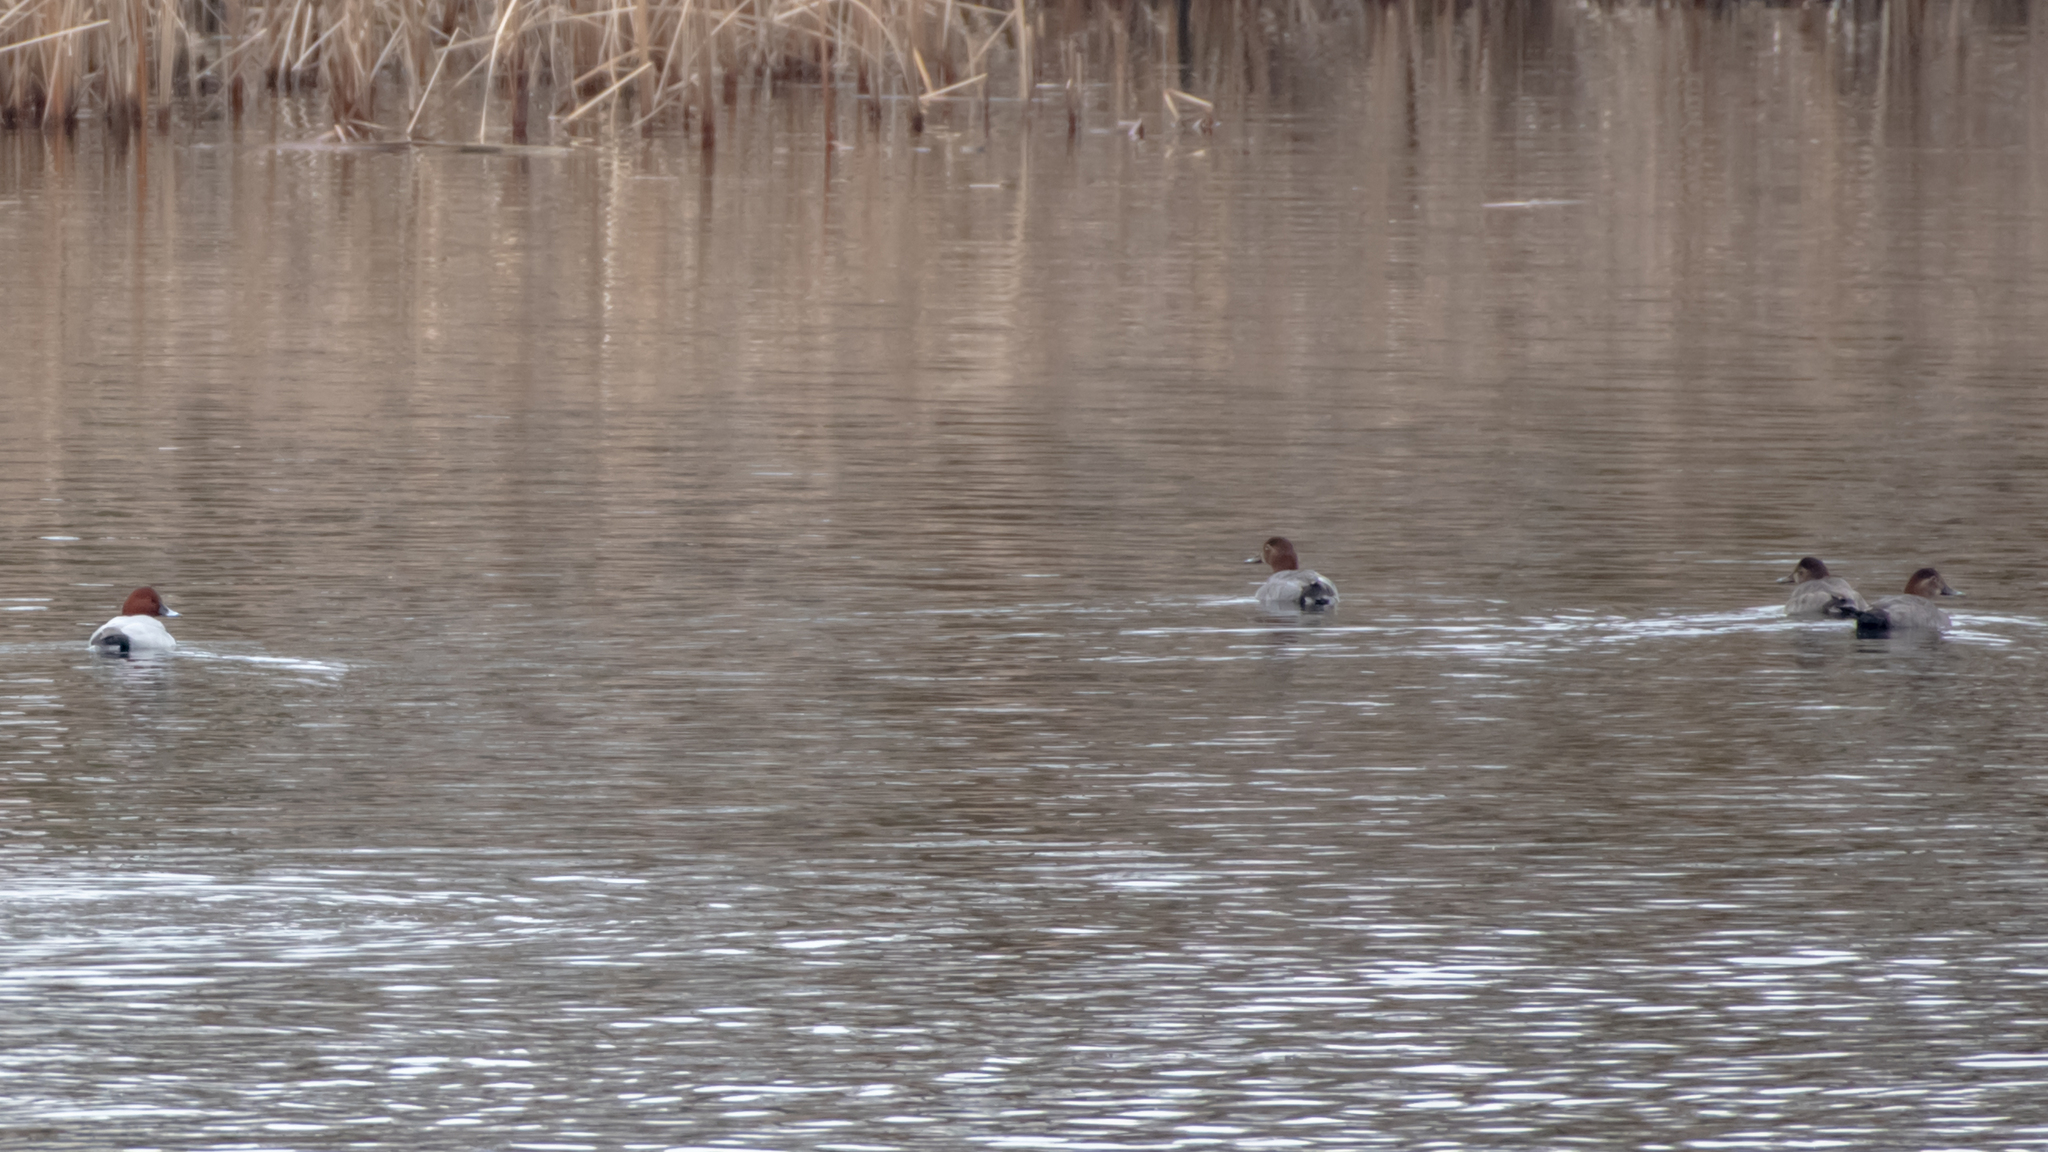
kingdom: Animalia
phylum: Chordata
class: Aves
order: Anseriformes
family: Anatidae
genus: Aythya
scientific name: Aythya ferina
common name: Common pochard
